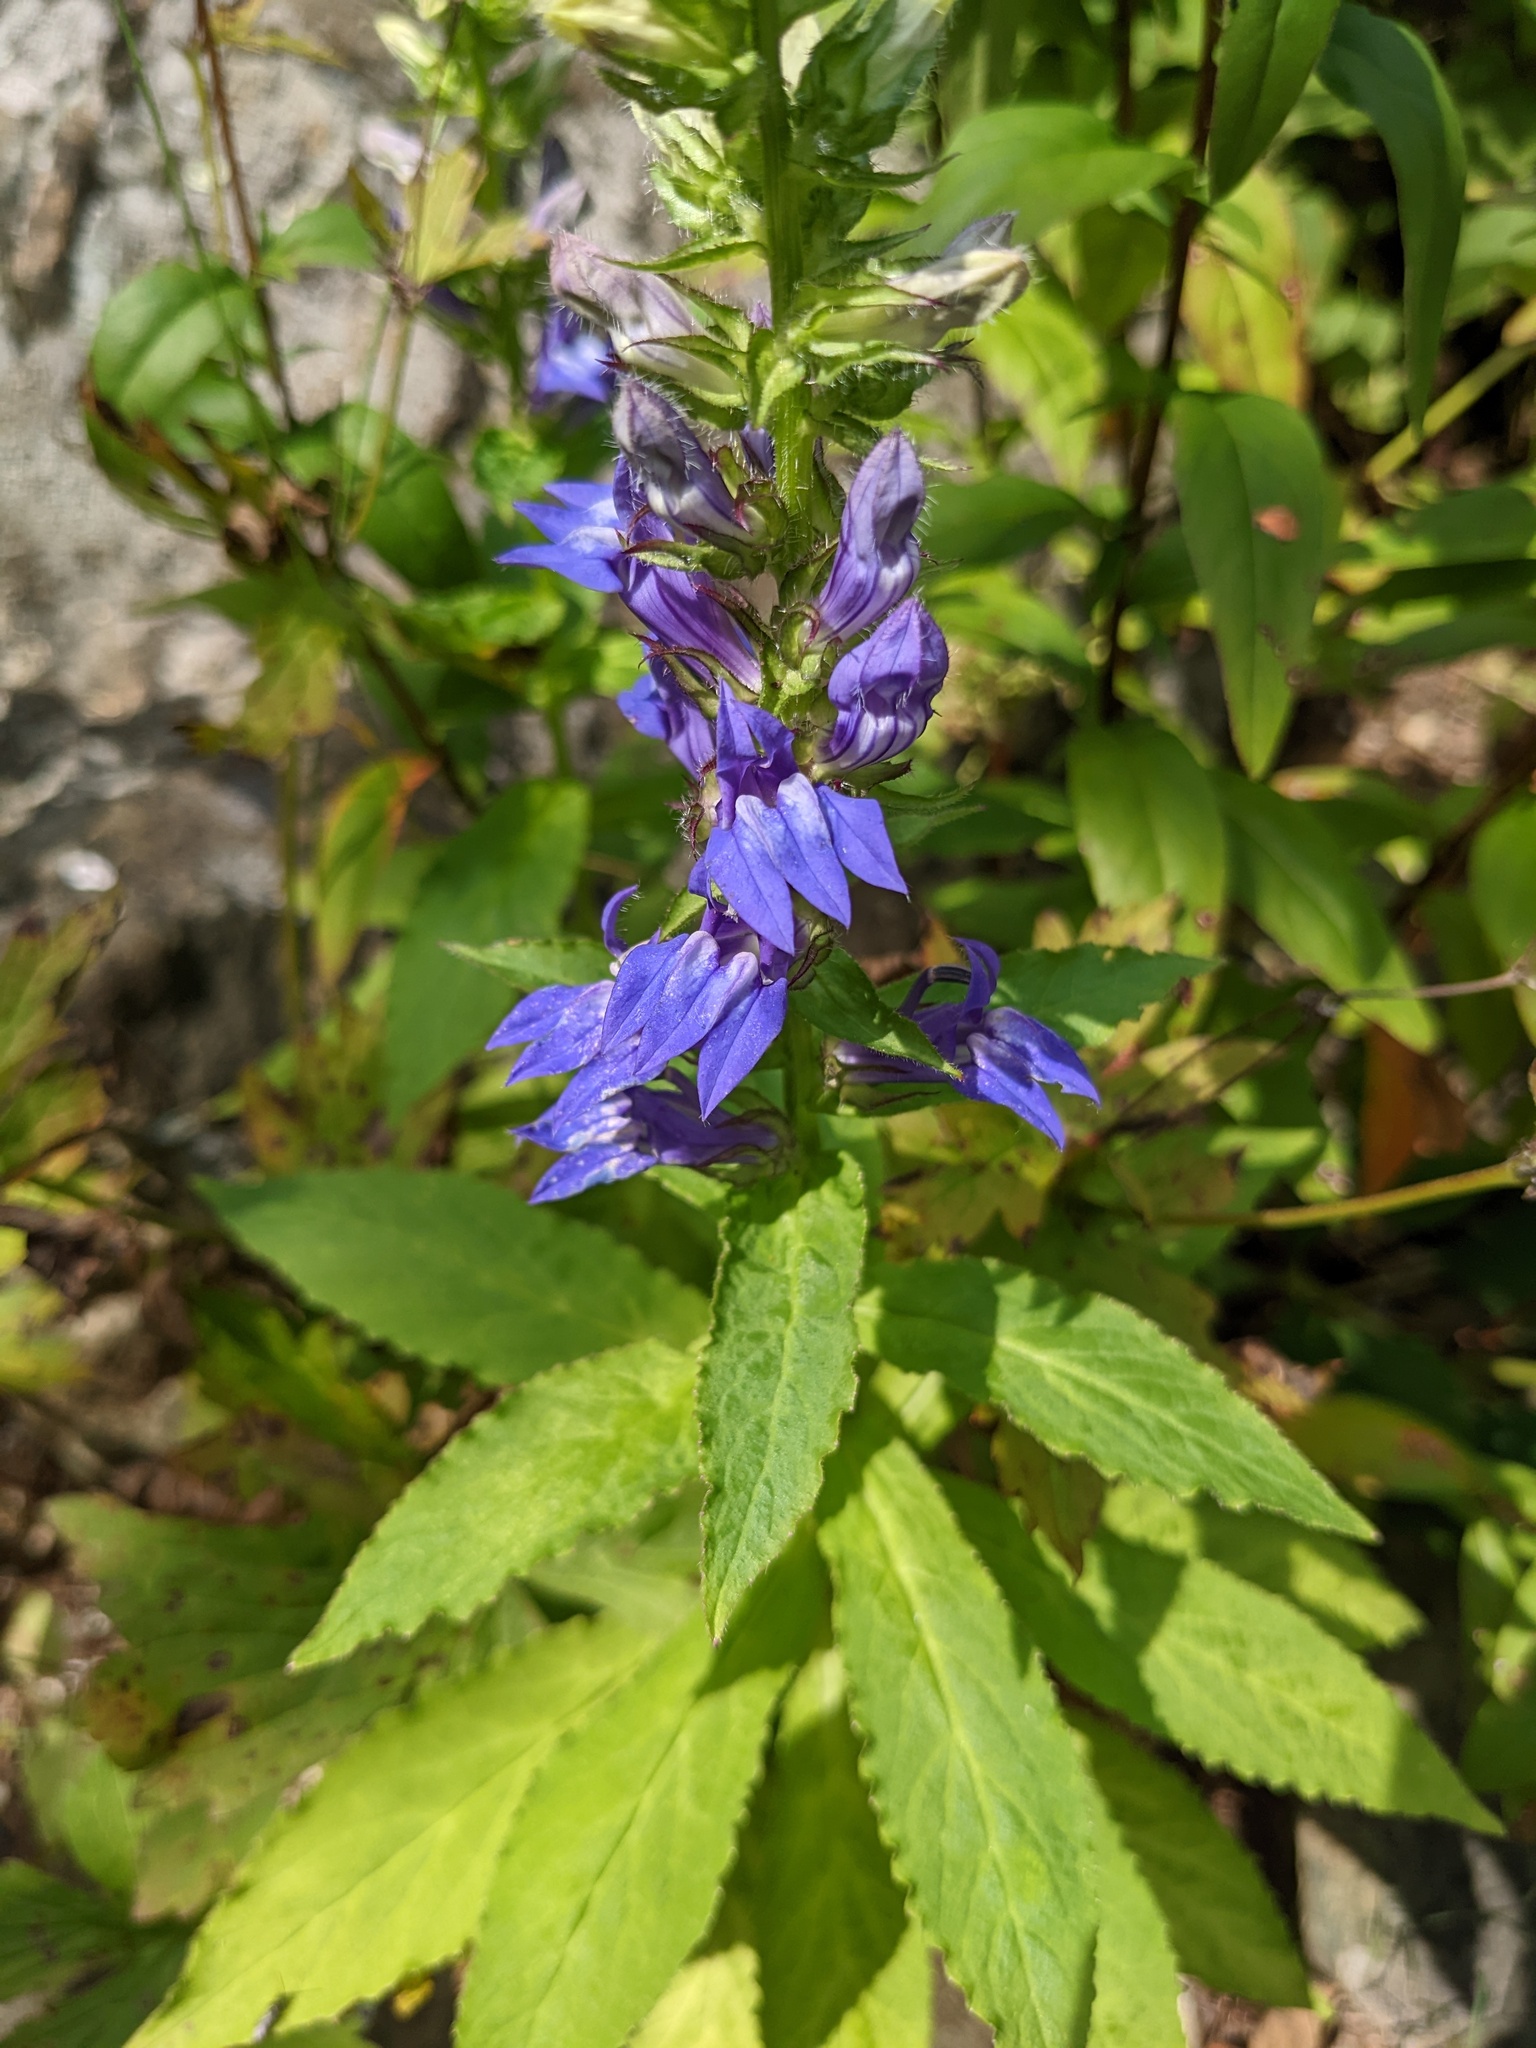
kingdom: Plantae
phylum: Tracheophyta
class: Magnoliopsida
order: Asterales
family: Campanulaceae
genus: Lobelia
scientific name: Lobelia siphilitica
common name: Great lobelia
